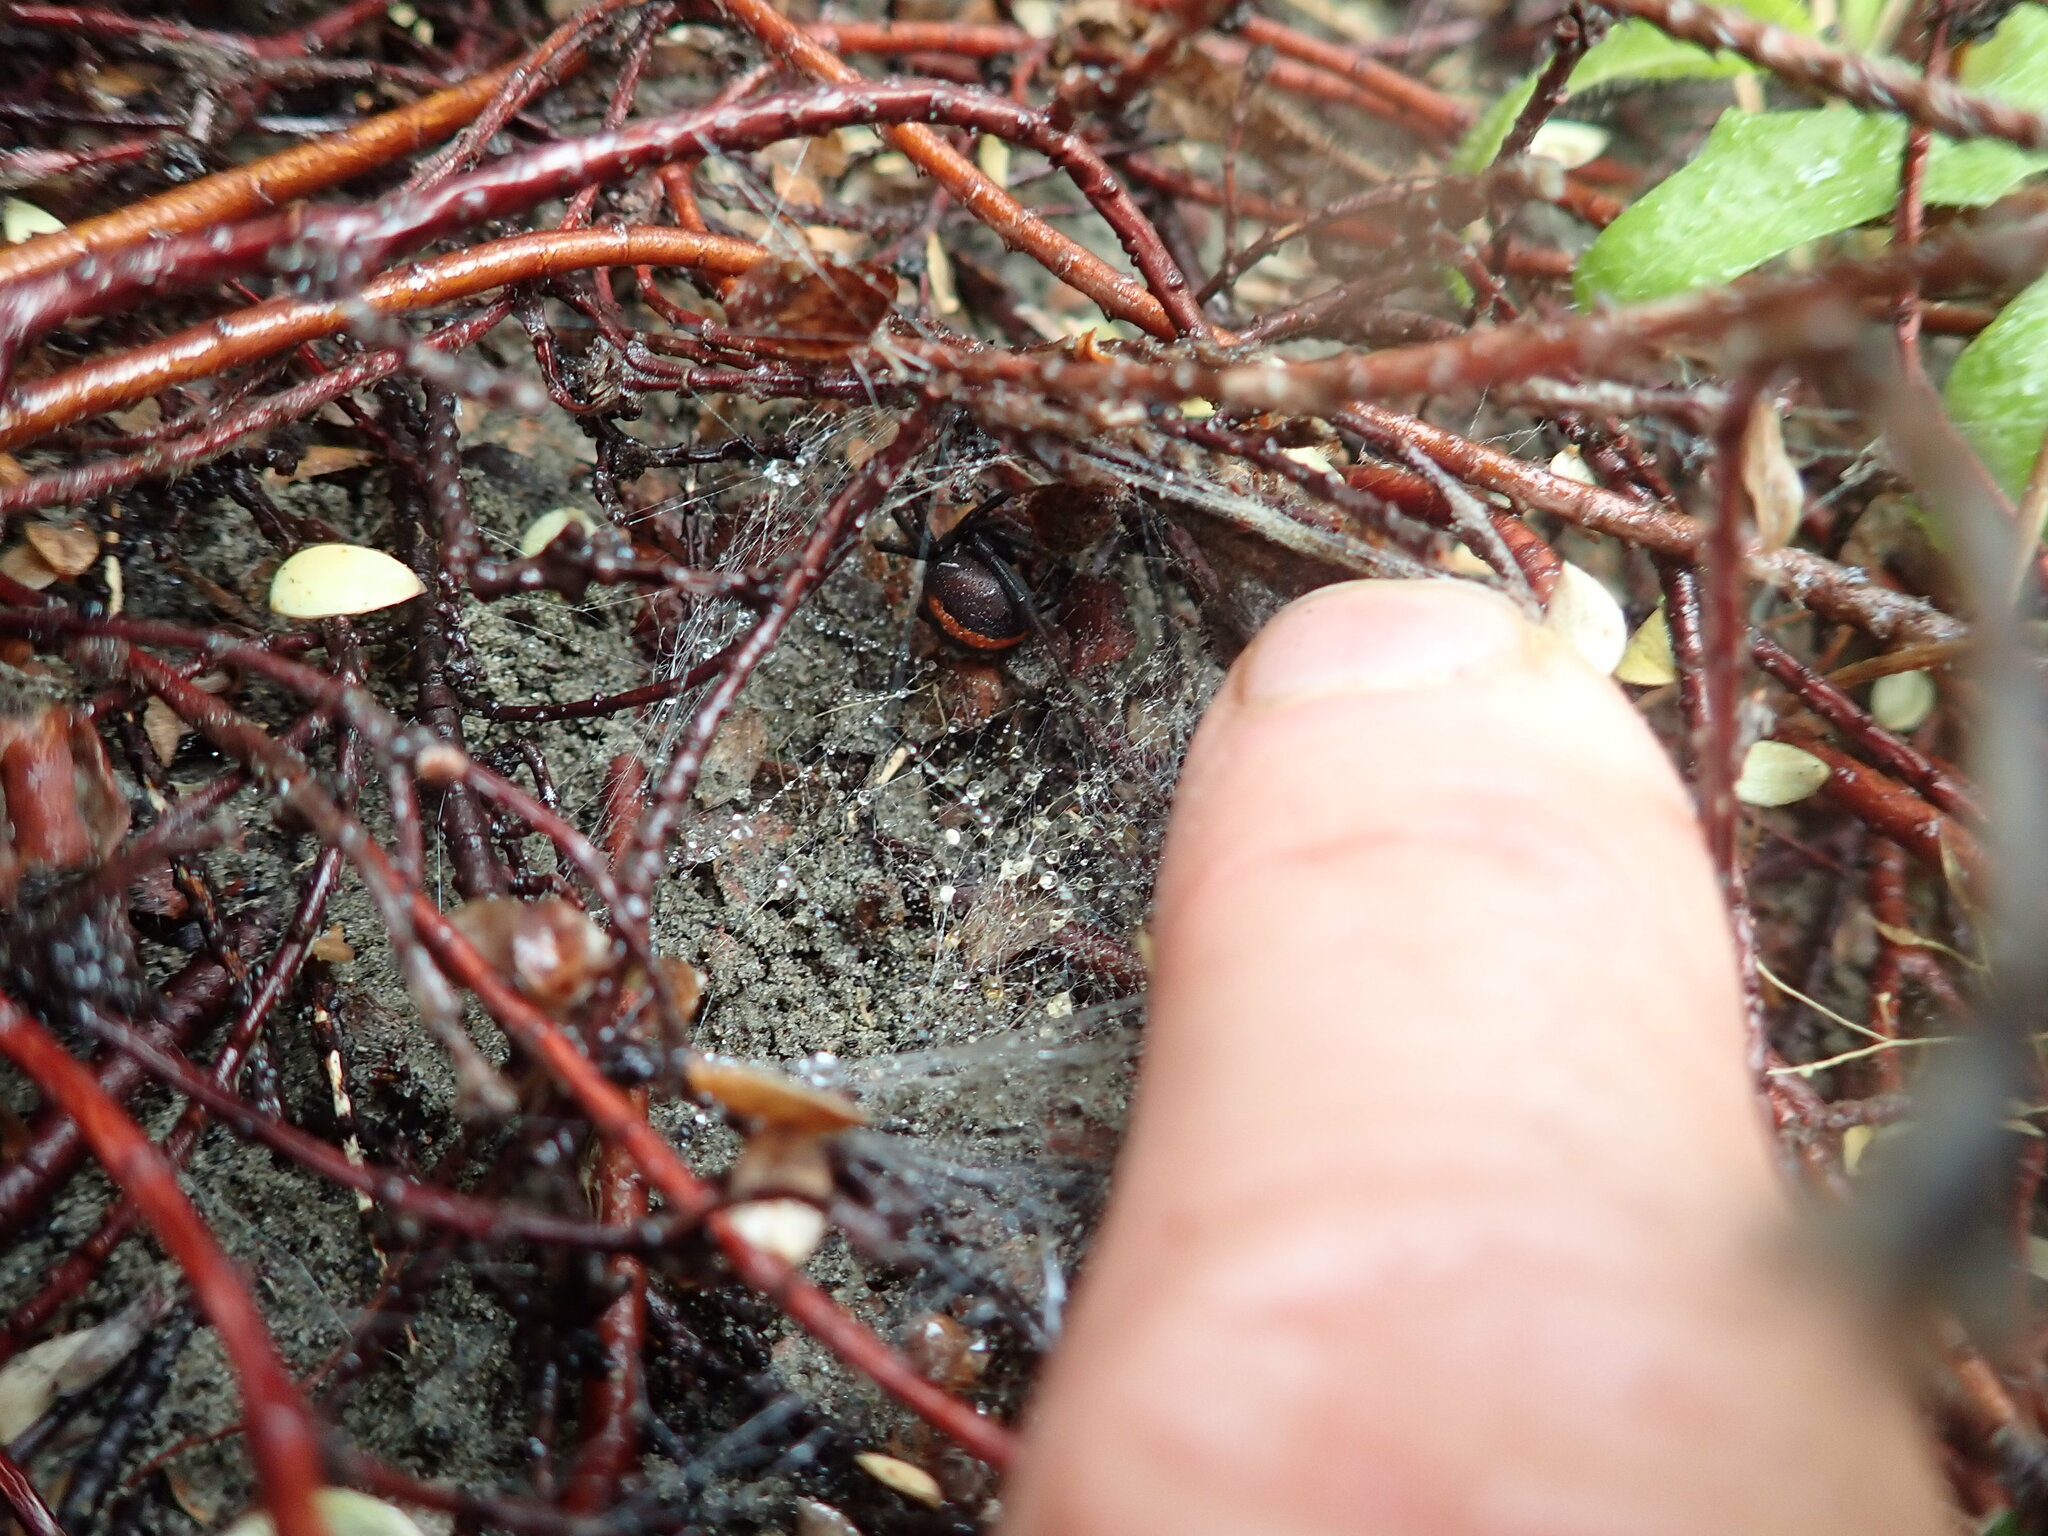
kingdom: Animalia
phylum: Arthropoda
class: Arachnida
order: Araneae
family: Theridiidae
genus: Latrodectus
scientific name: Latrodectus katipo
